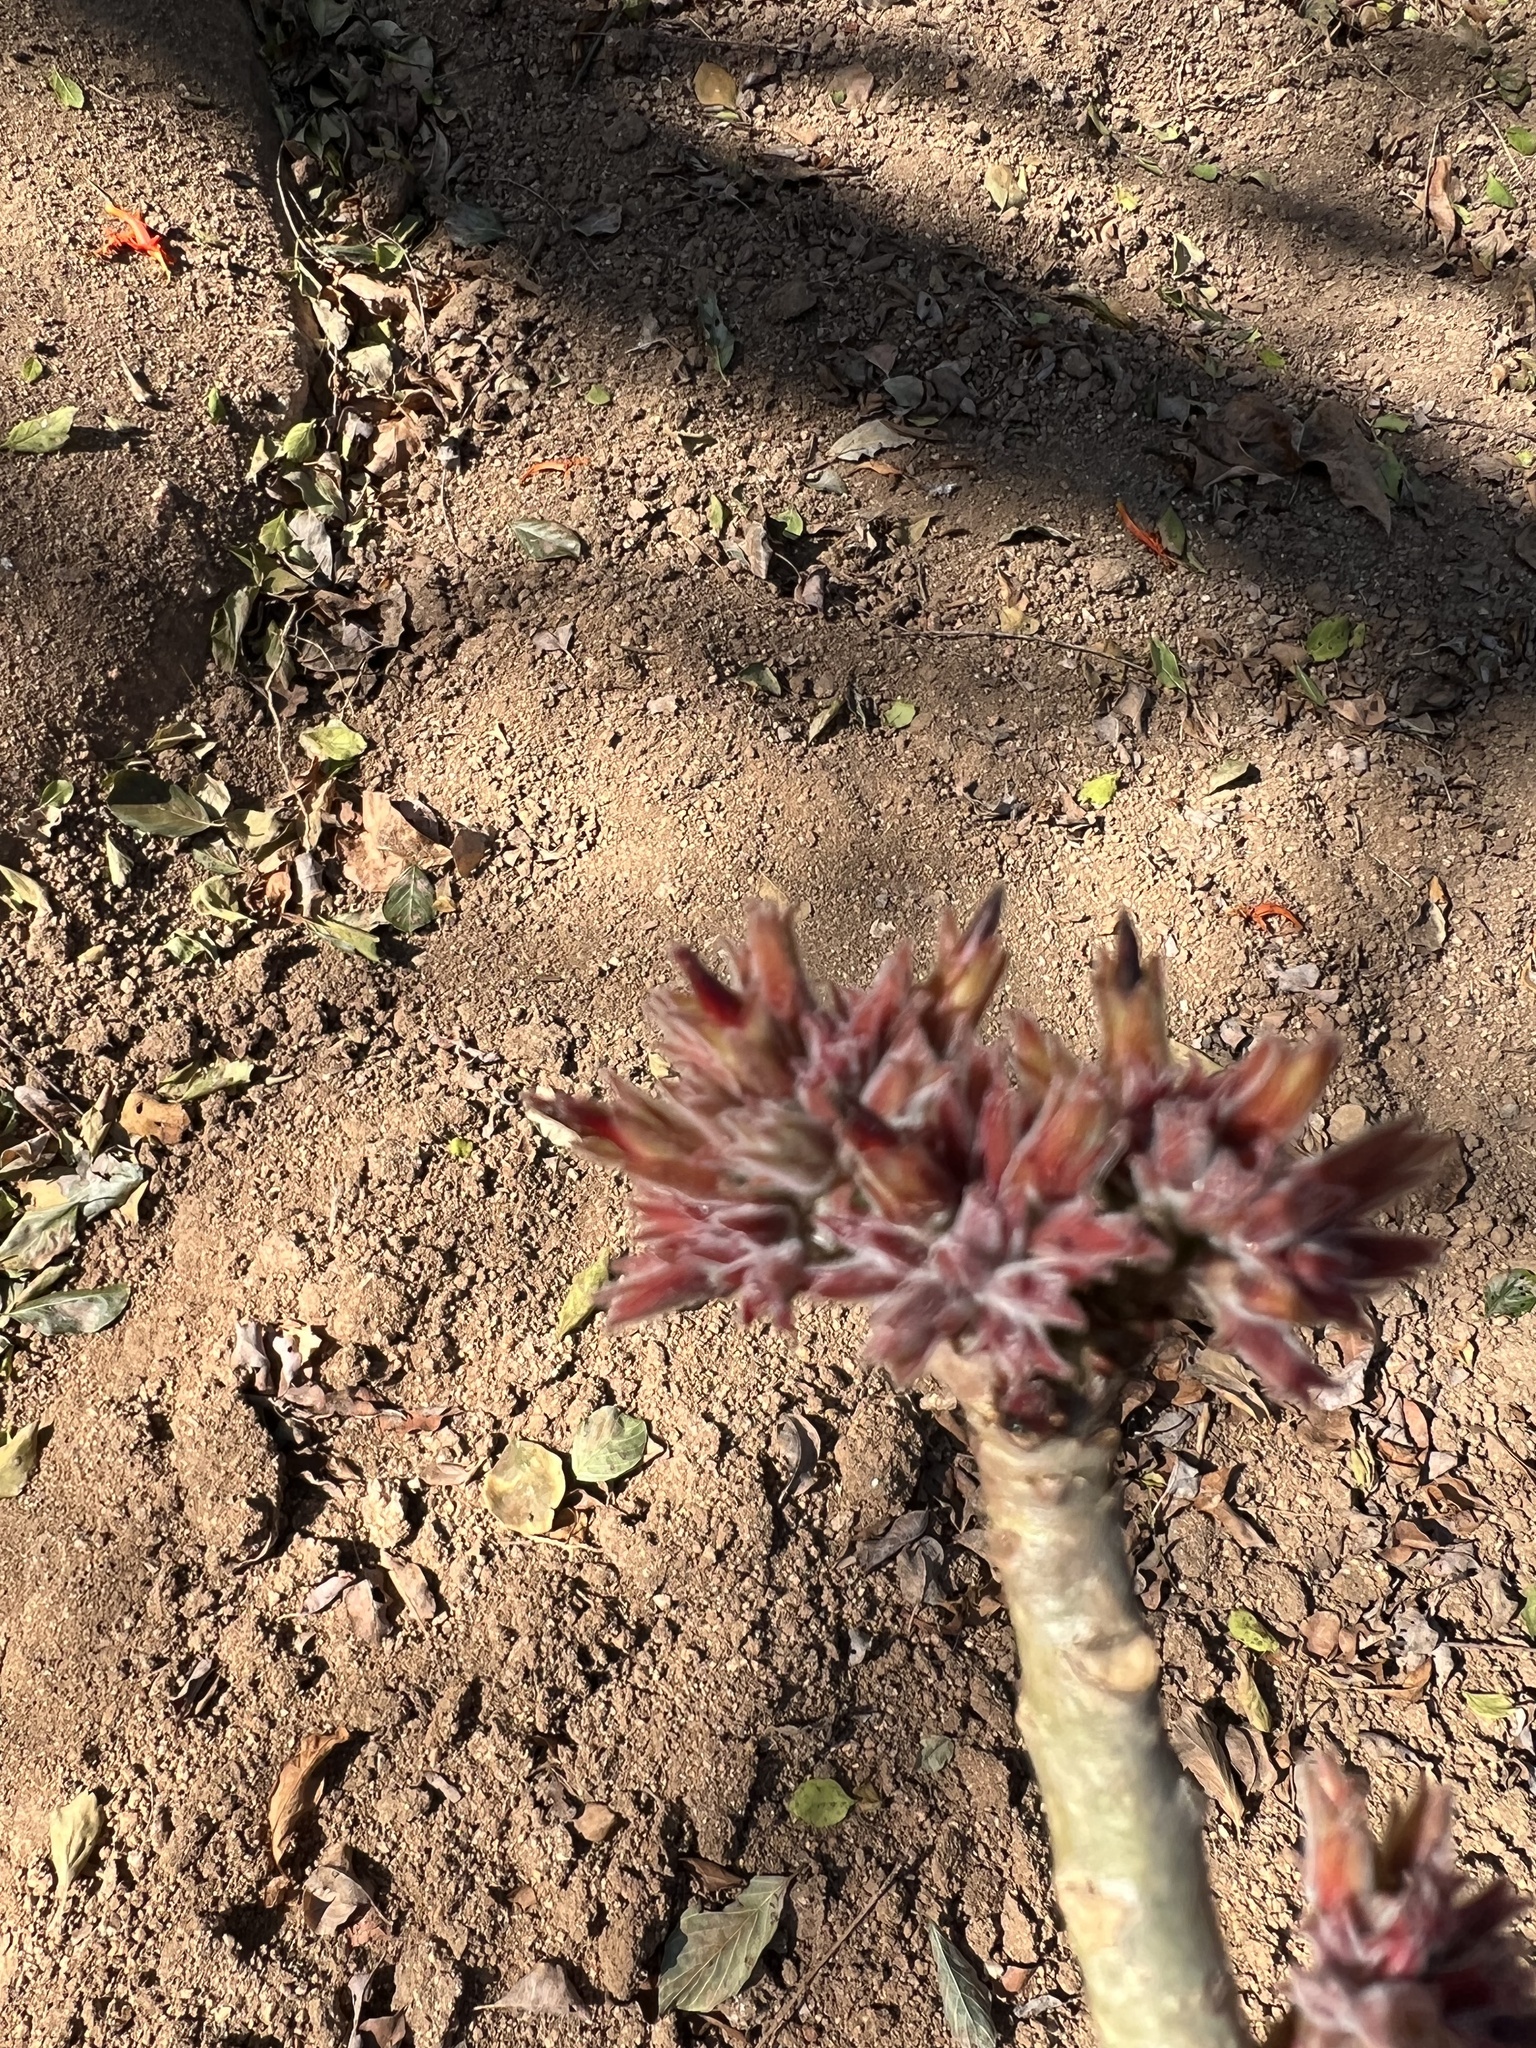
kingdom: Plantae
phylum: Tracheophyta
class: Magnoliopsida
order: Gentianales
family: Apocynaceae
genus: Adenium
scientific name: Adenium obesum
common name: Desert-rose
